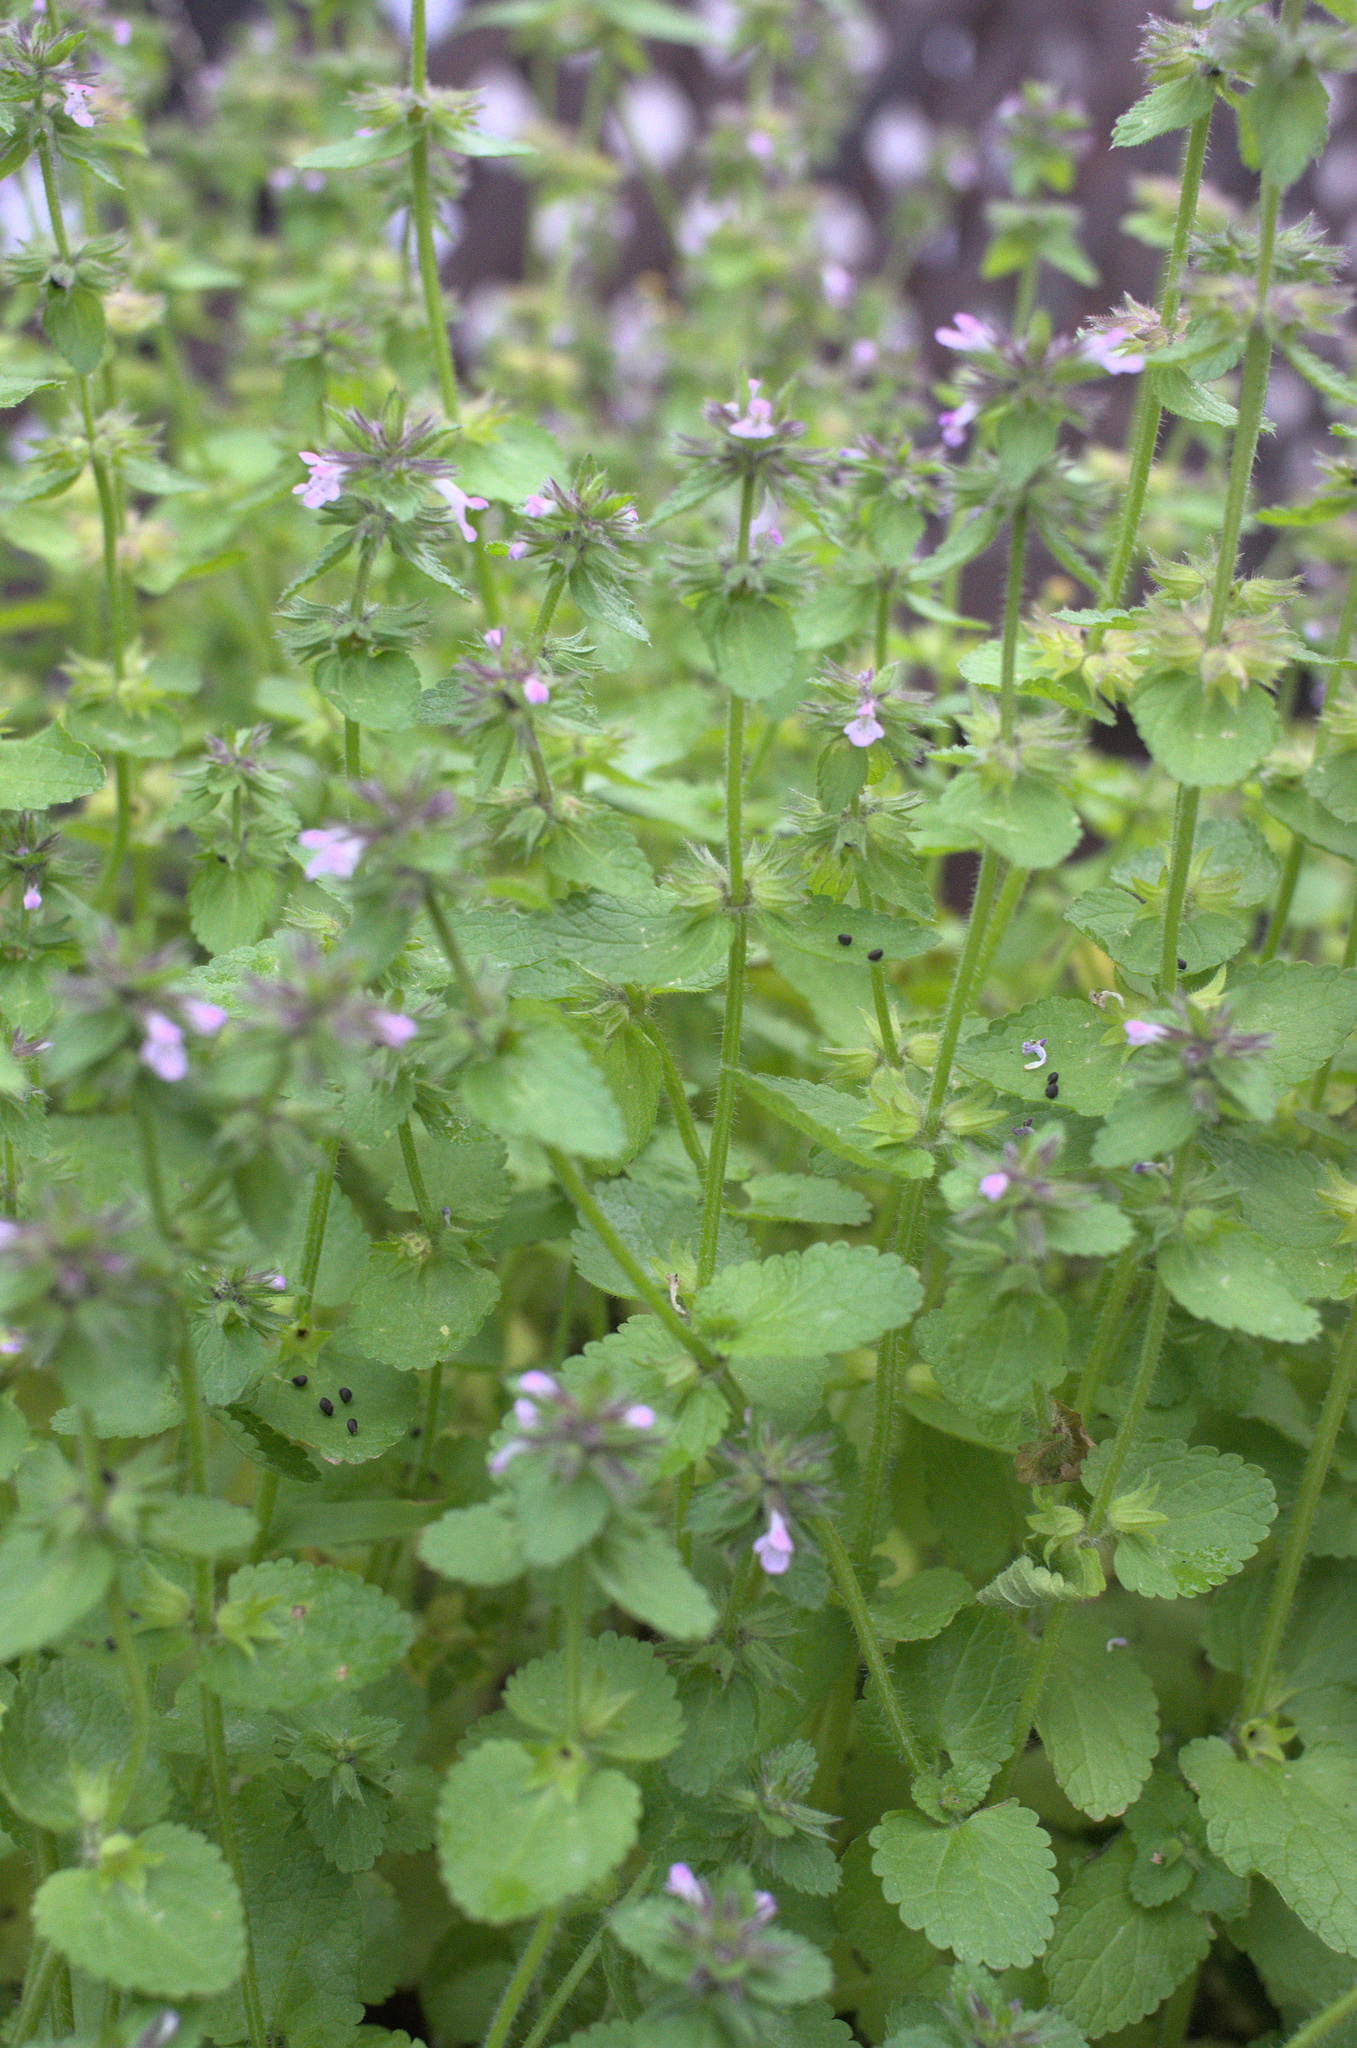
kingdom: Plantae
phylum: Tracheophyta
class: Magnoliopsida
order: Lamiales
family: Lamiaceae
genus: Stachys
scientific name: Stachys arvensis
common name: Field woundwort
